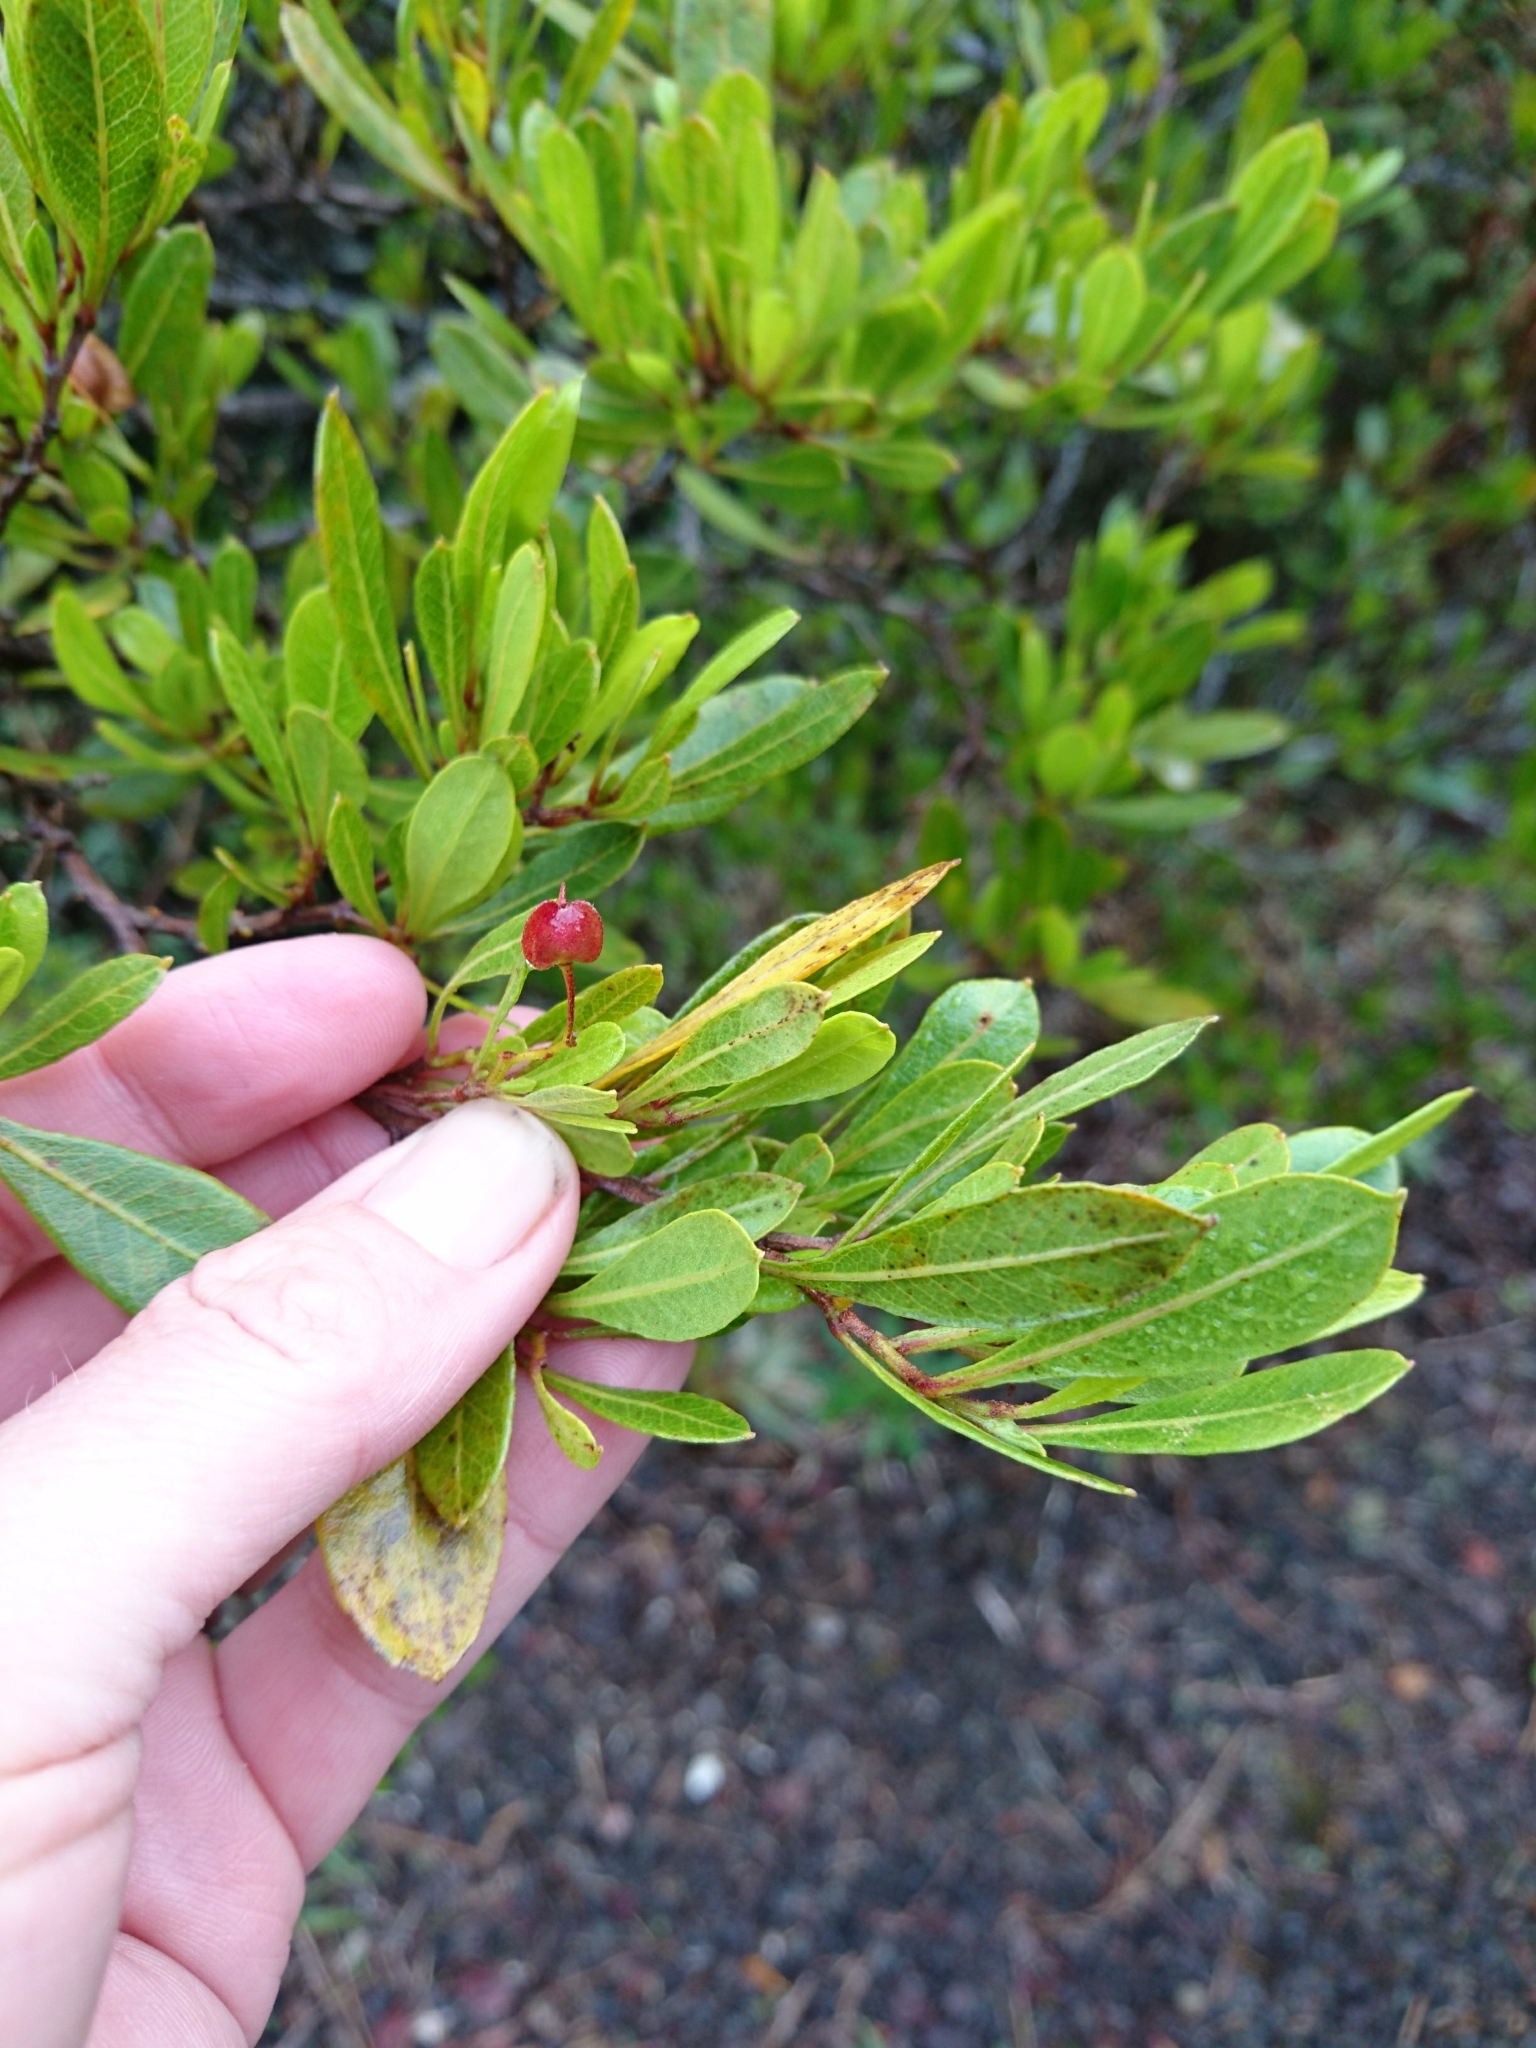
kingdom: Plantae
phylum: Tracheophyta
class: Magnoliopsida
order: Sapindales
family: Sapindaceae
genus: Dodonaea
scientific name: Dodonaea viscosa
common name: Hopbush
